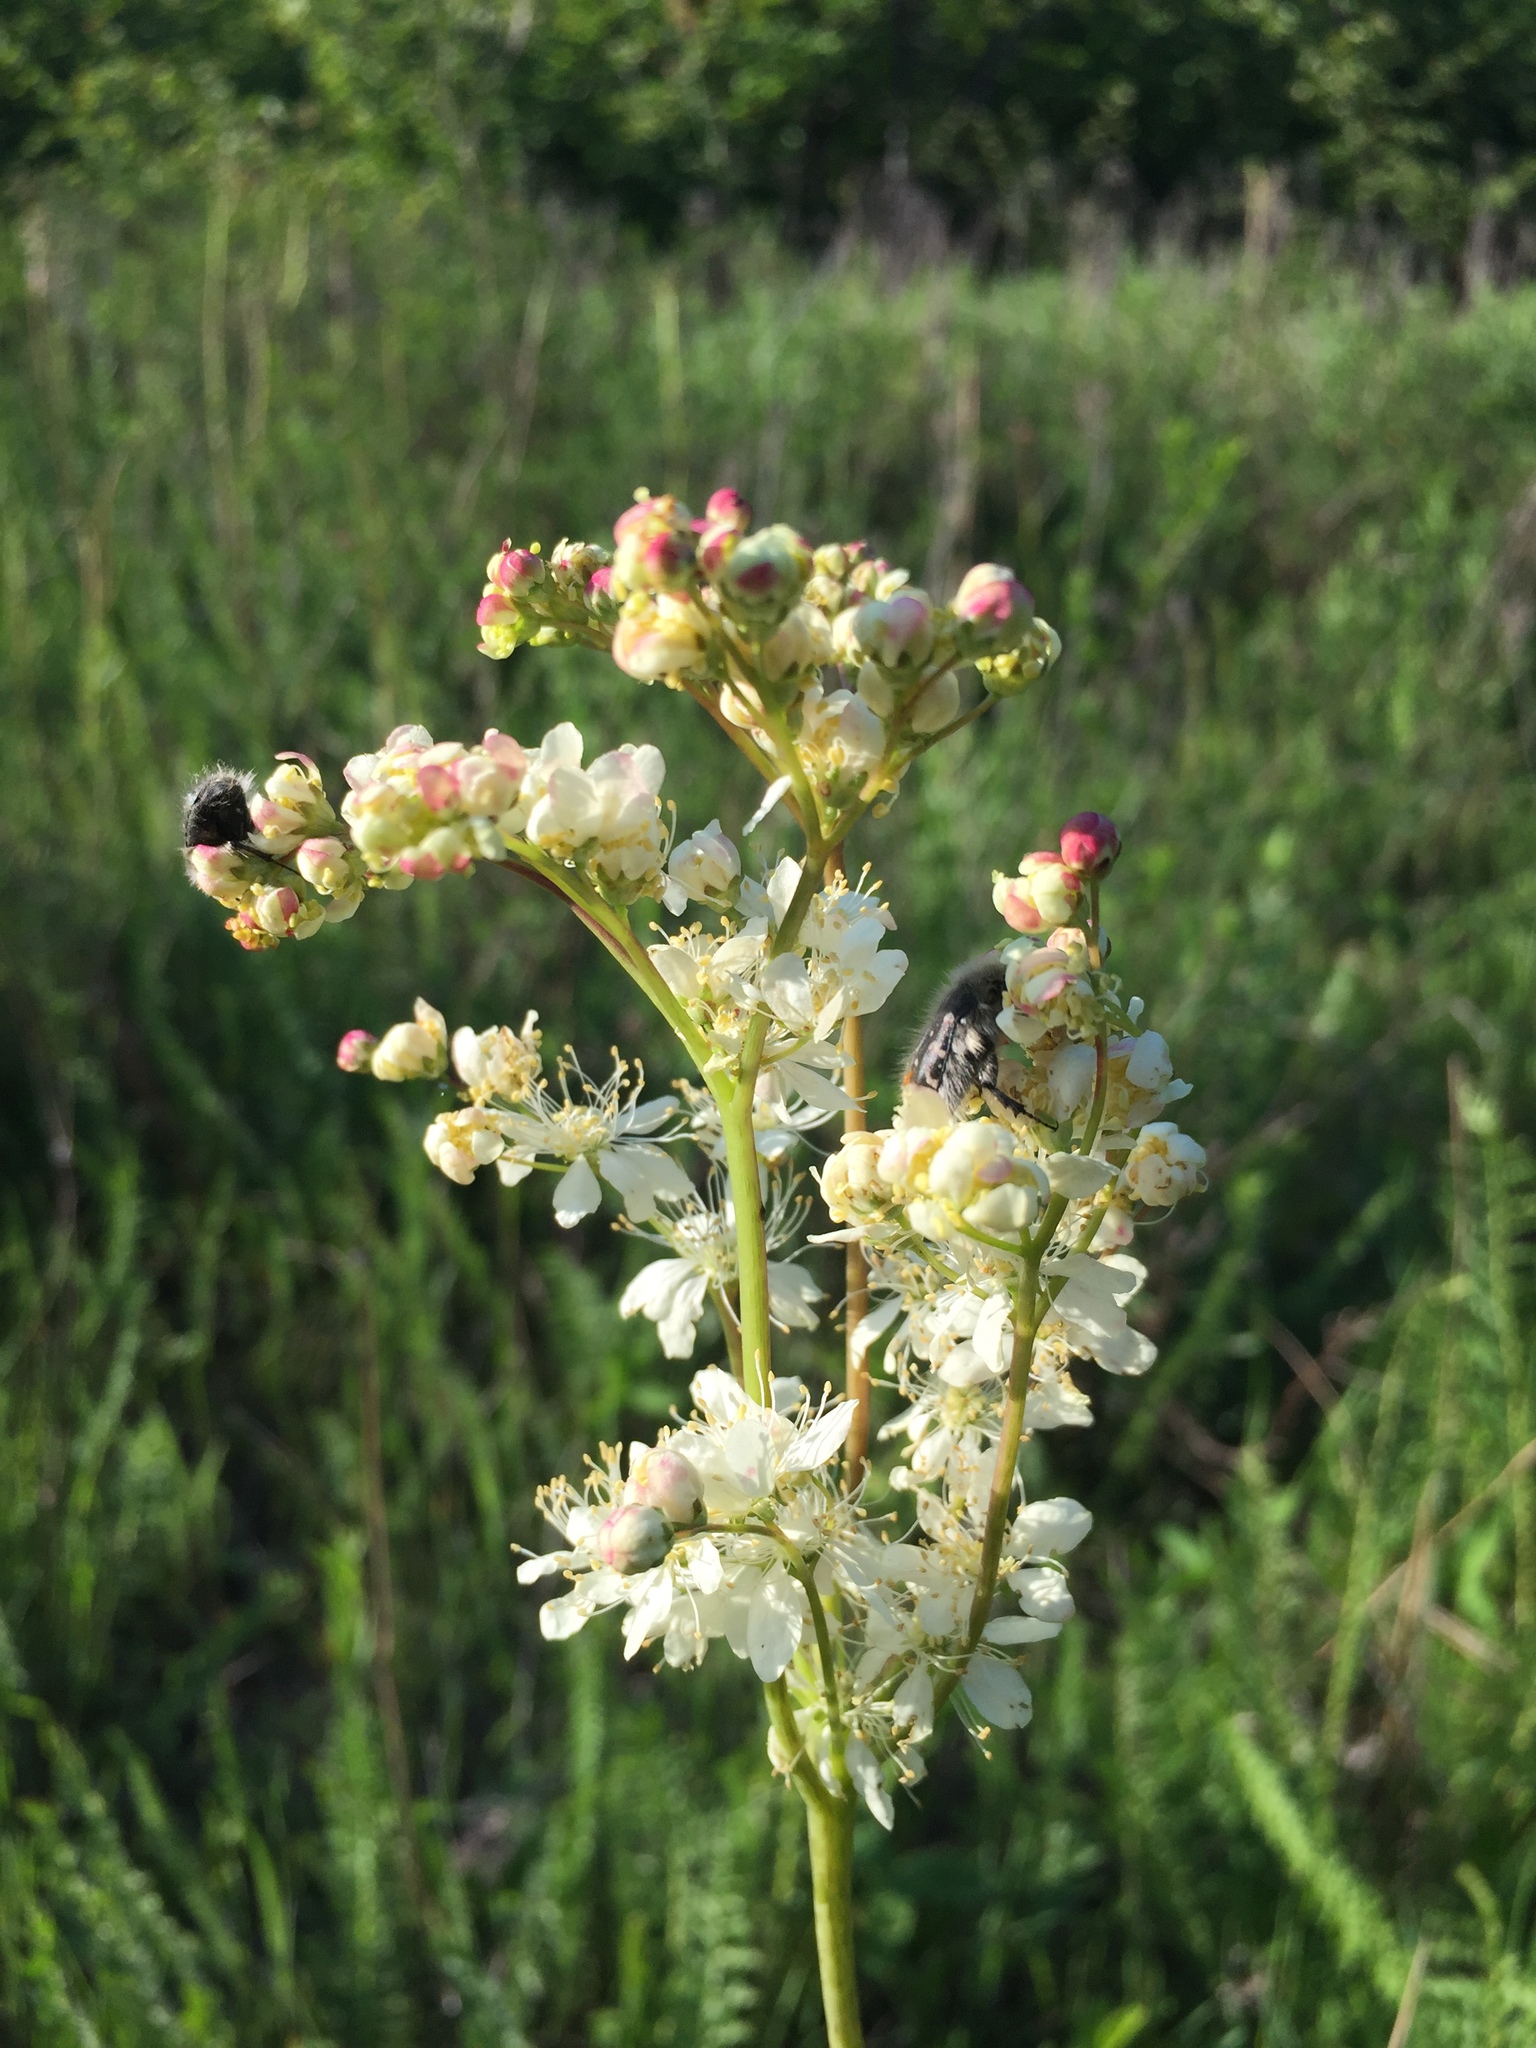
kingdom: Plantae
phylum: Tracheophyta
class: Magnoliopsida
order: Rosales
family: Rosaceae
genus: Filipendula
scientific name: Filipendula vulgaris
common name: Dropwort
